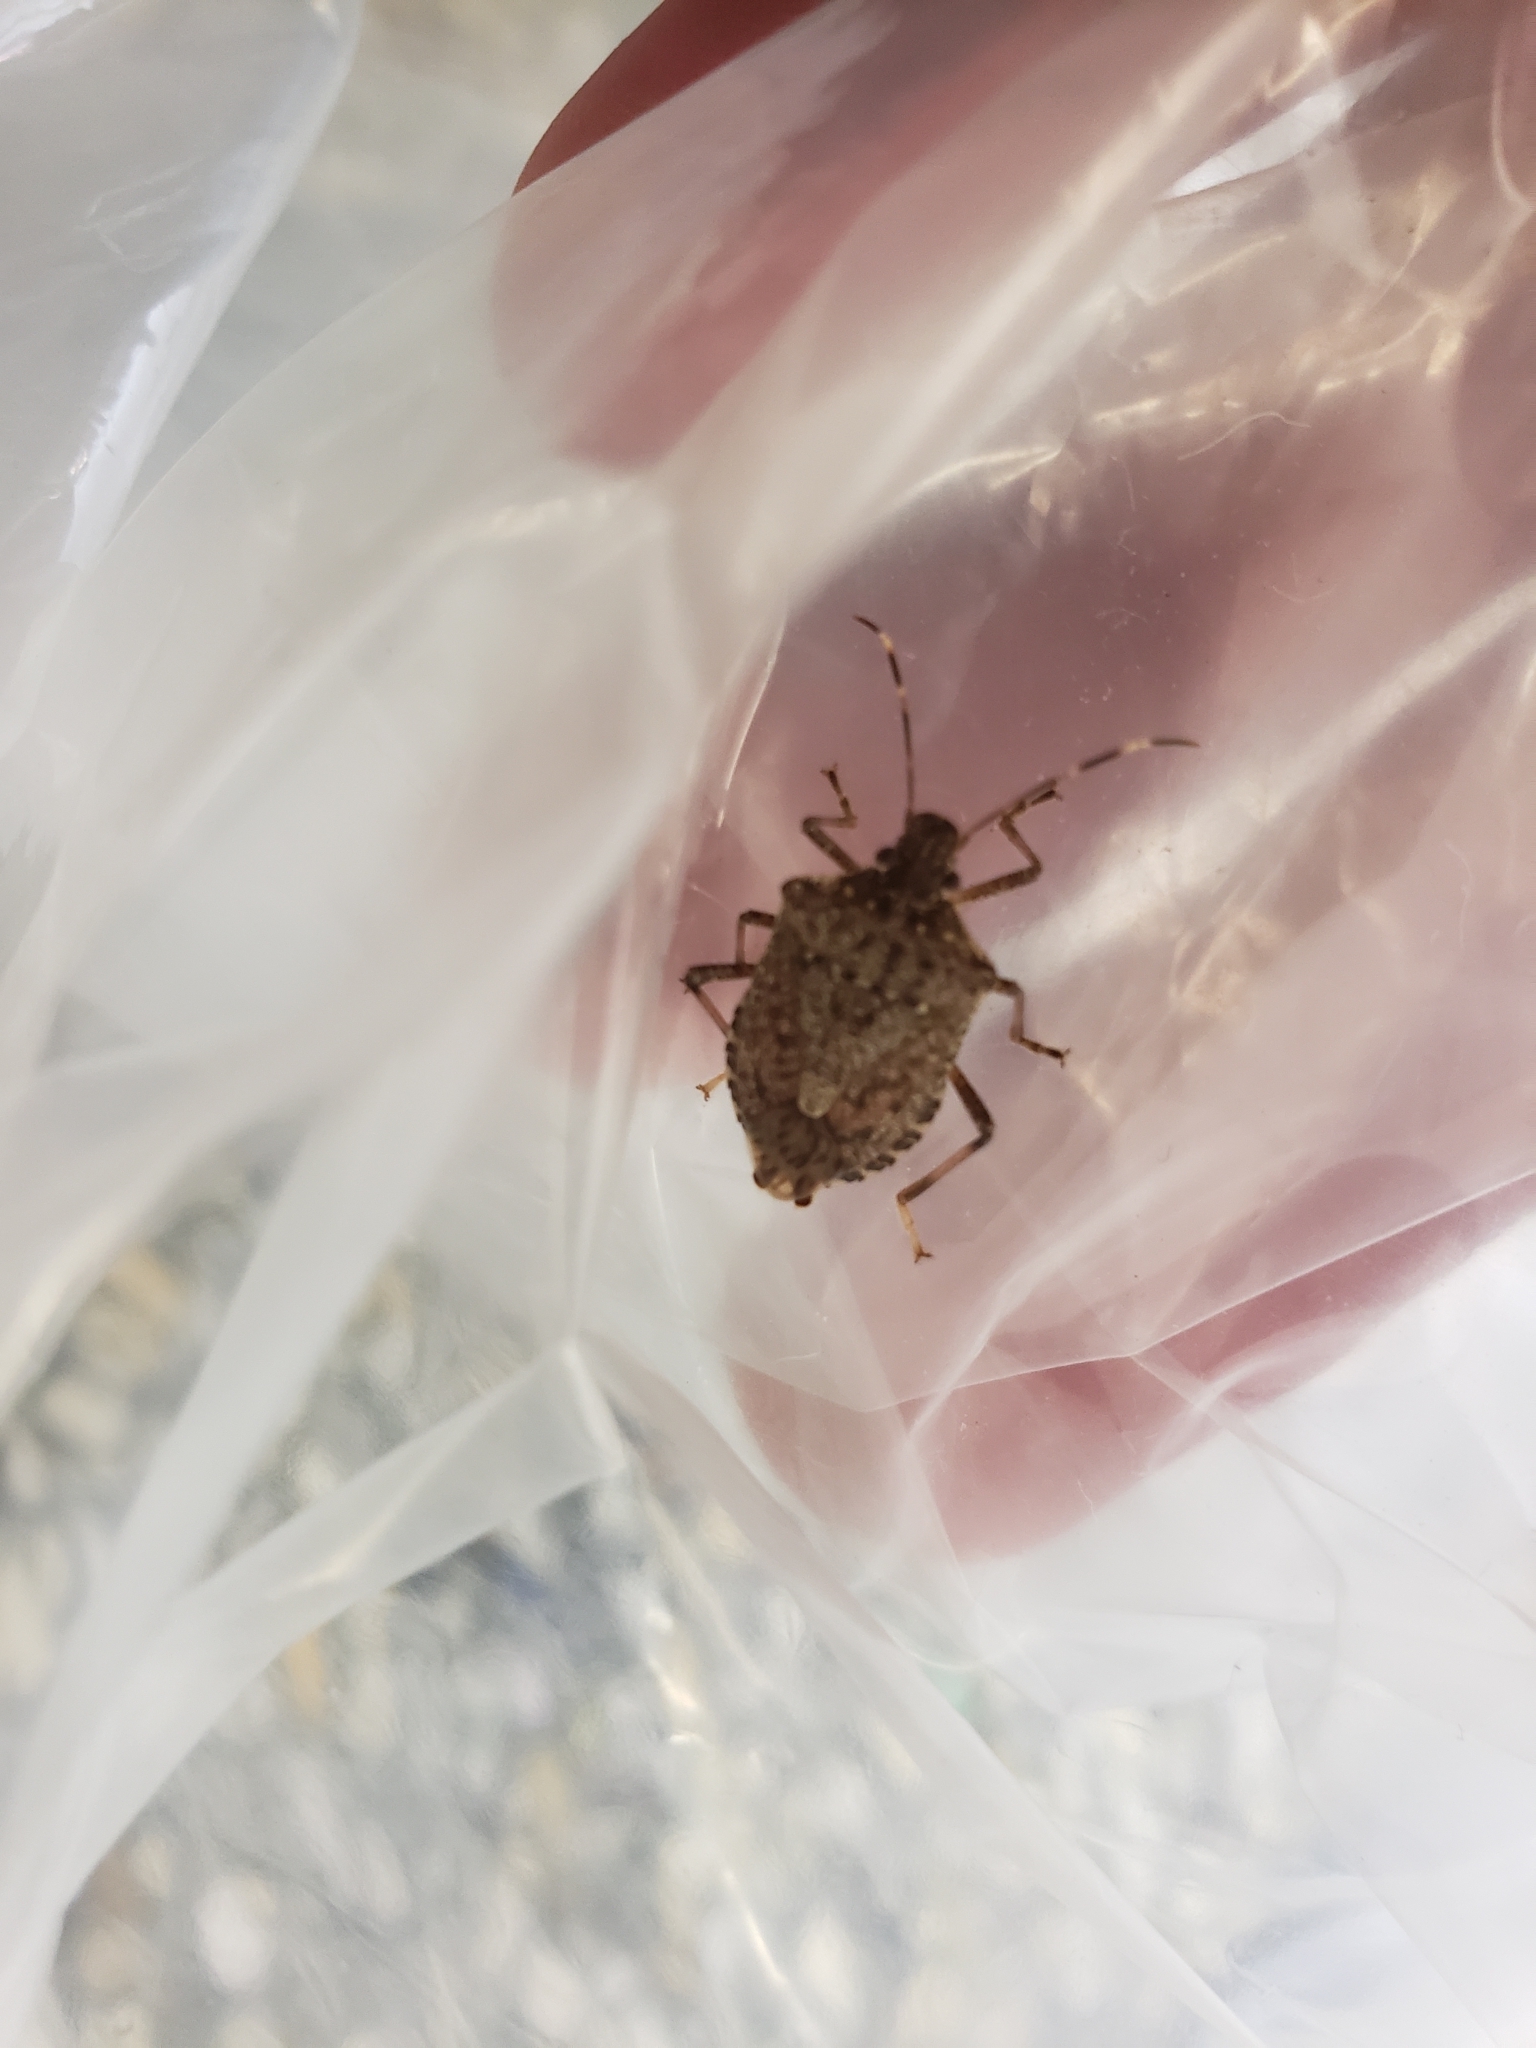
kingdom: Animalia
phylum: Arthropoda
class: Insecta
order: Hemiptera
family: Pentatomidae
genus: Halyomorpha
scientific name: Halyomorpha halys
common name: Brown marmorated stink bug
